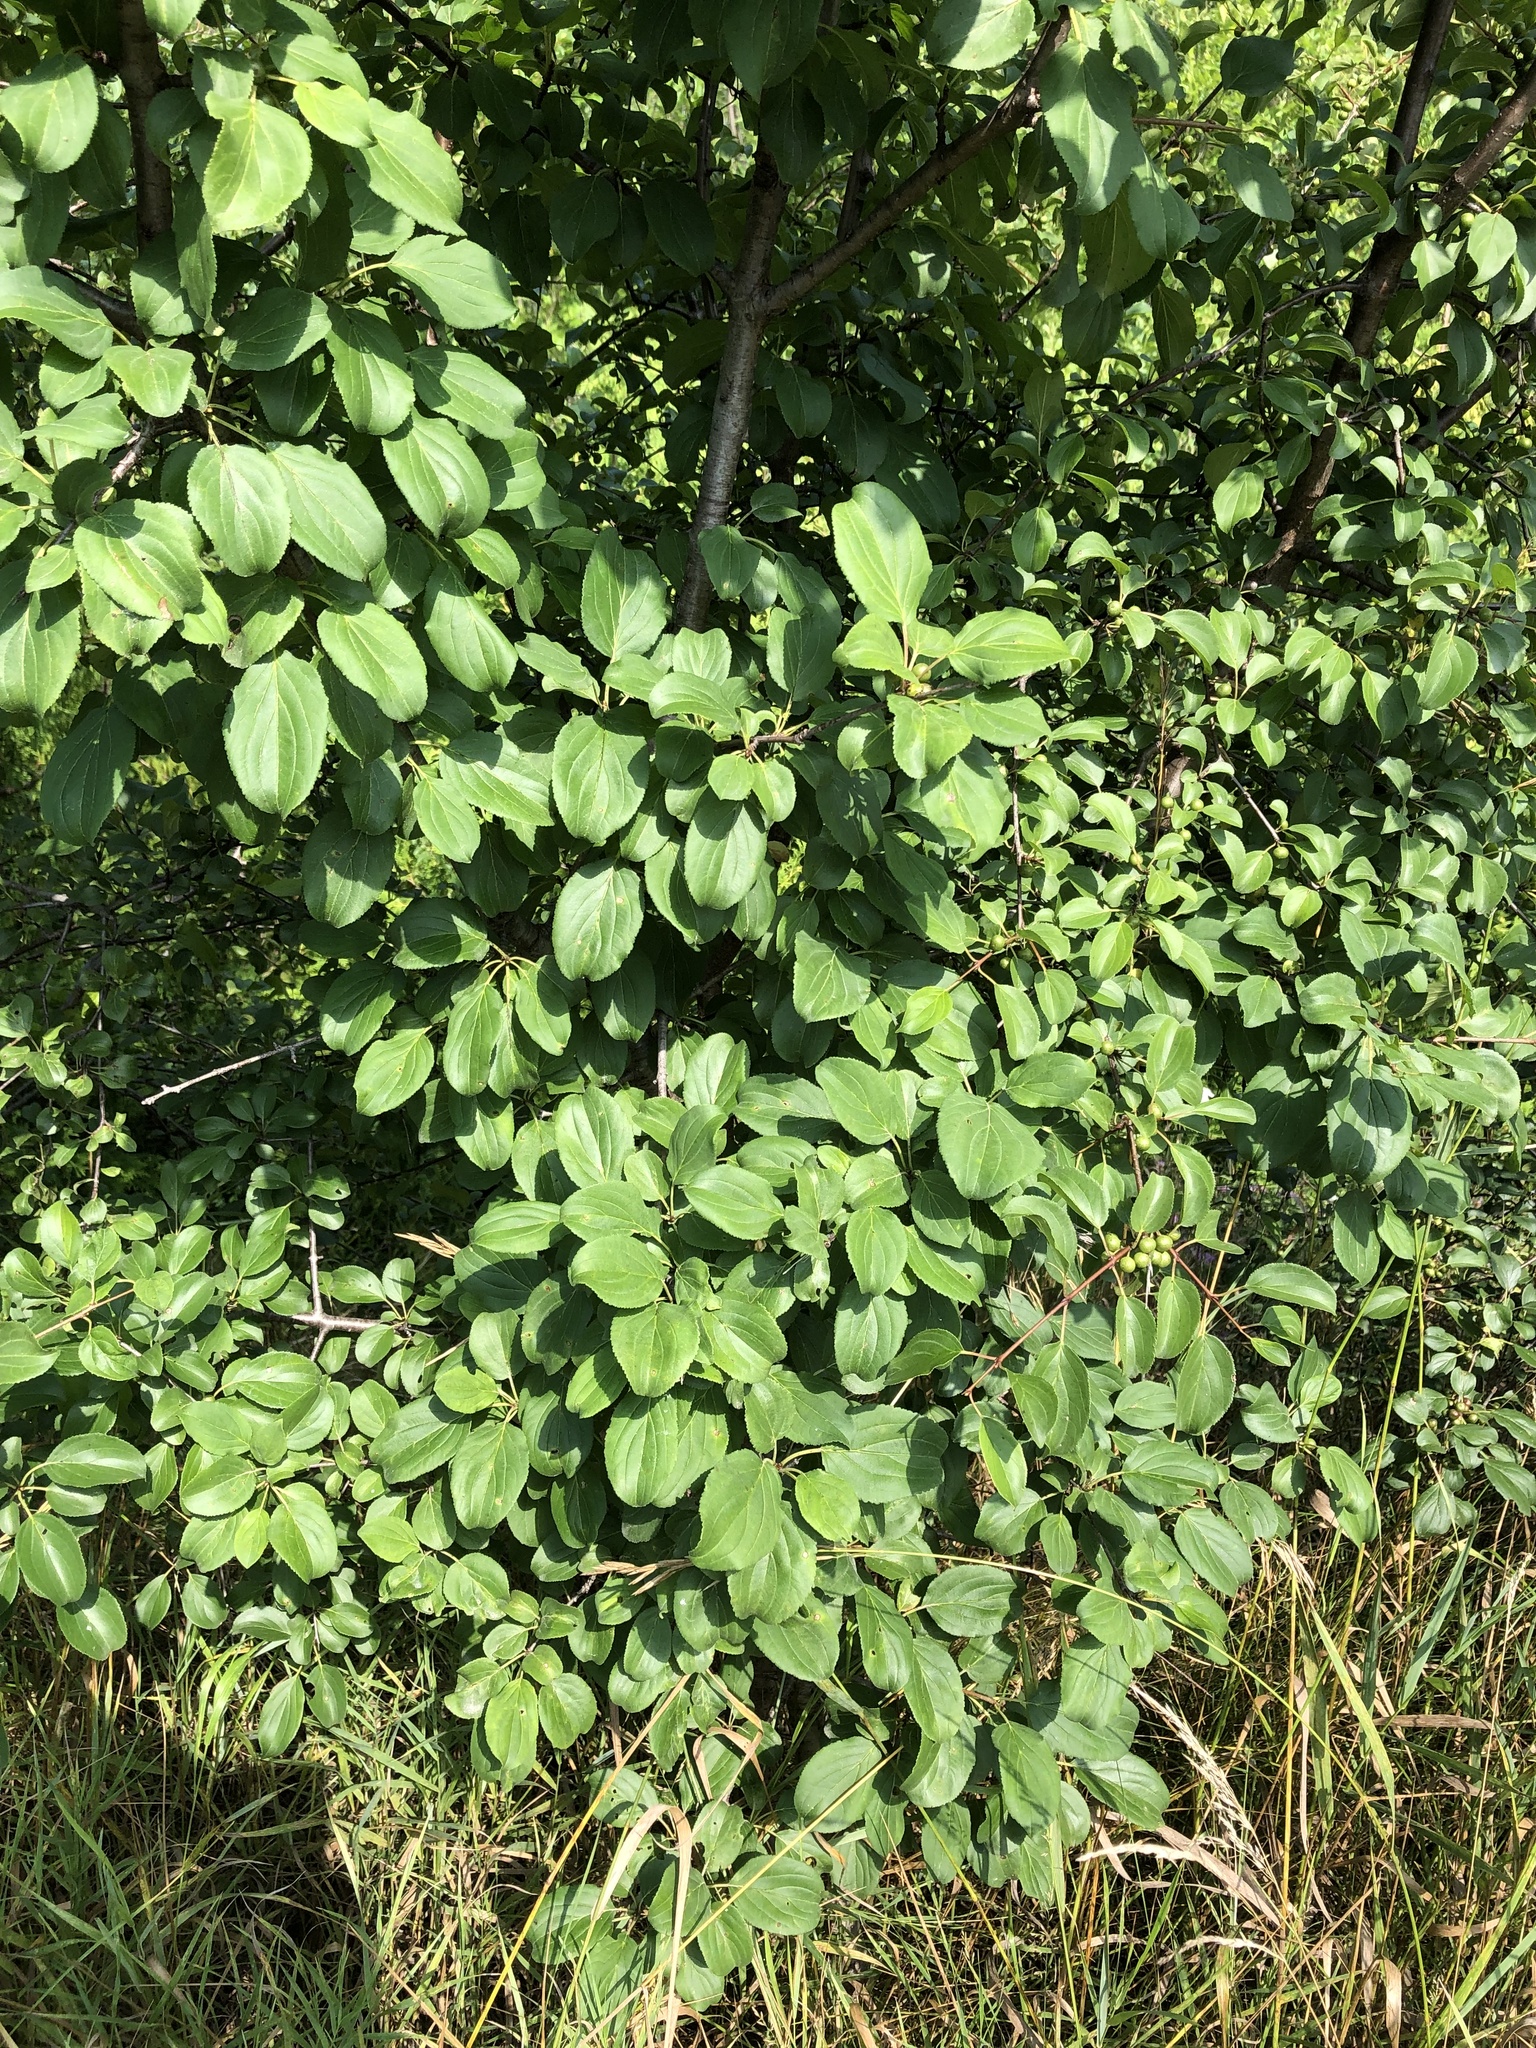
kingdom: Plantae
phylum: Tracheophyta
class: Magnoliopsida
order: Rosales
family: Rhamnaceae
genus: Rhamnus
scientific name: Rhamnus cathartica
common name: Common buckthorn
